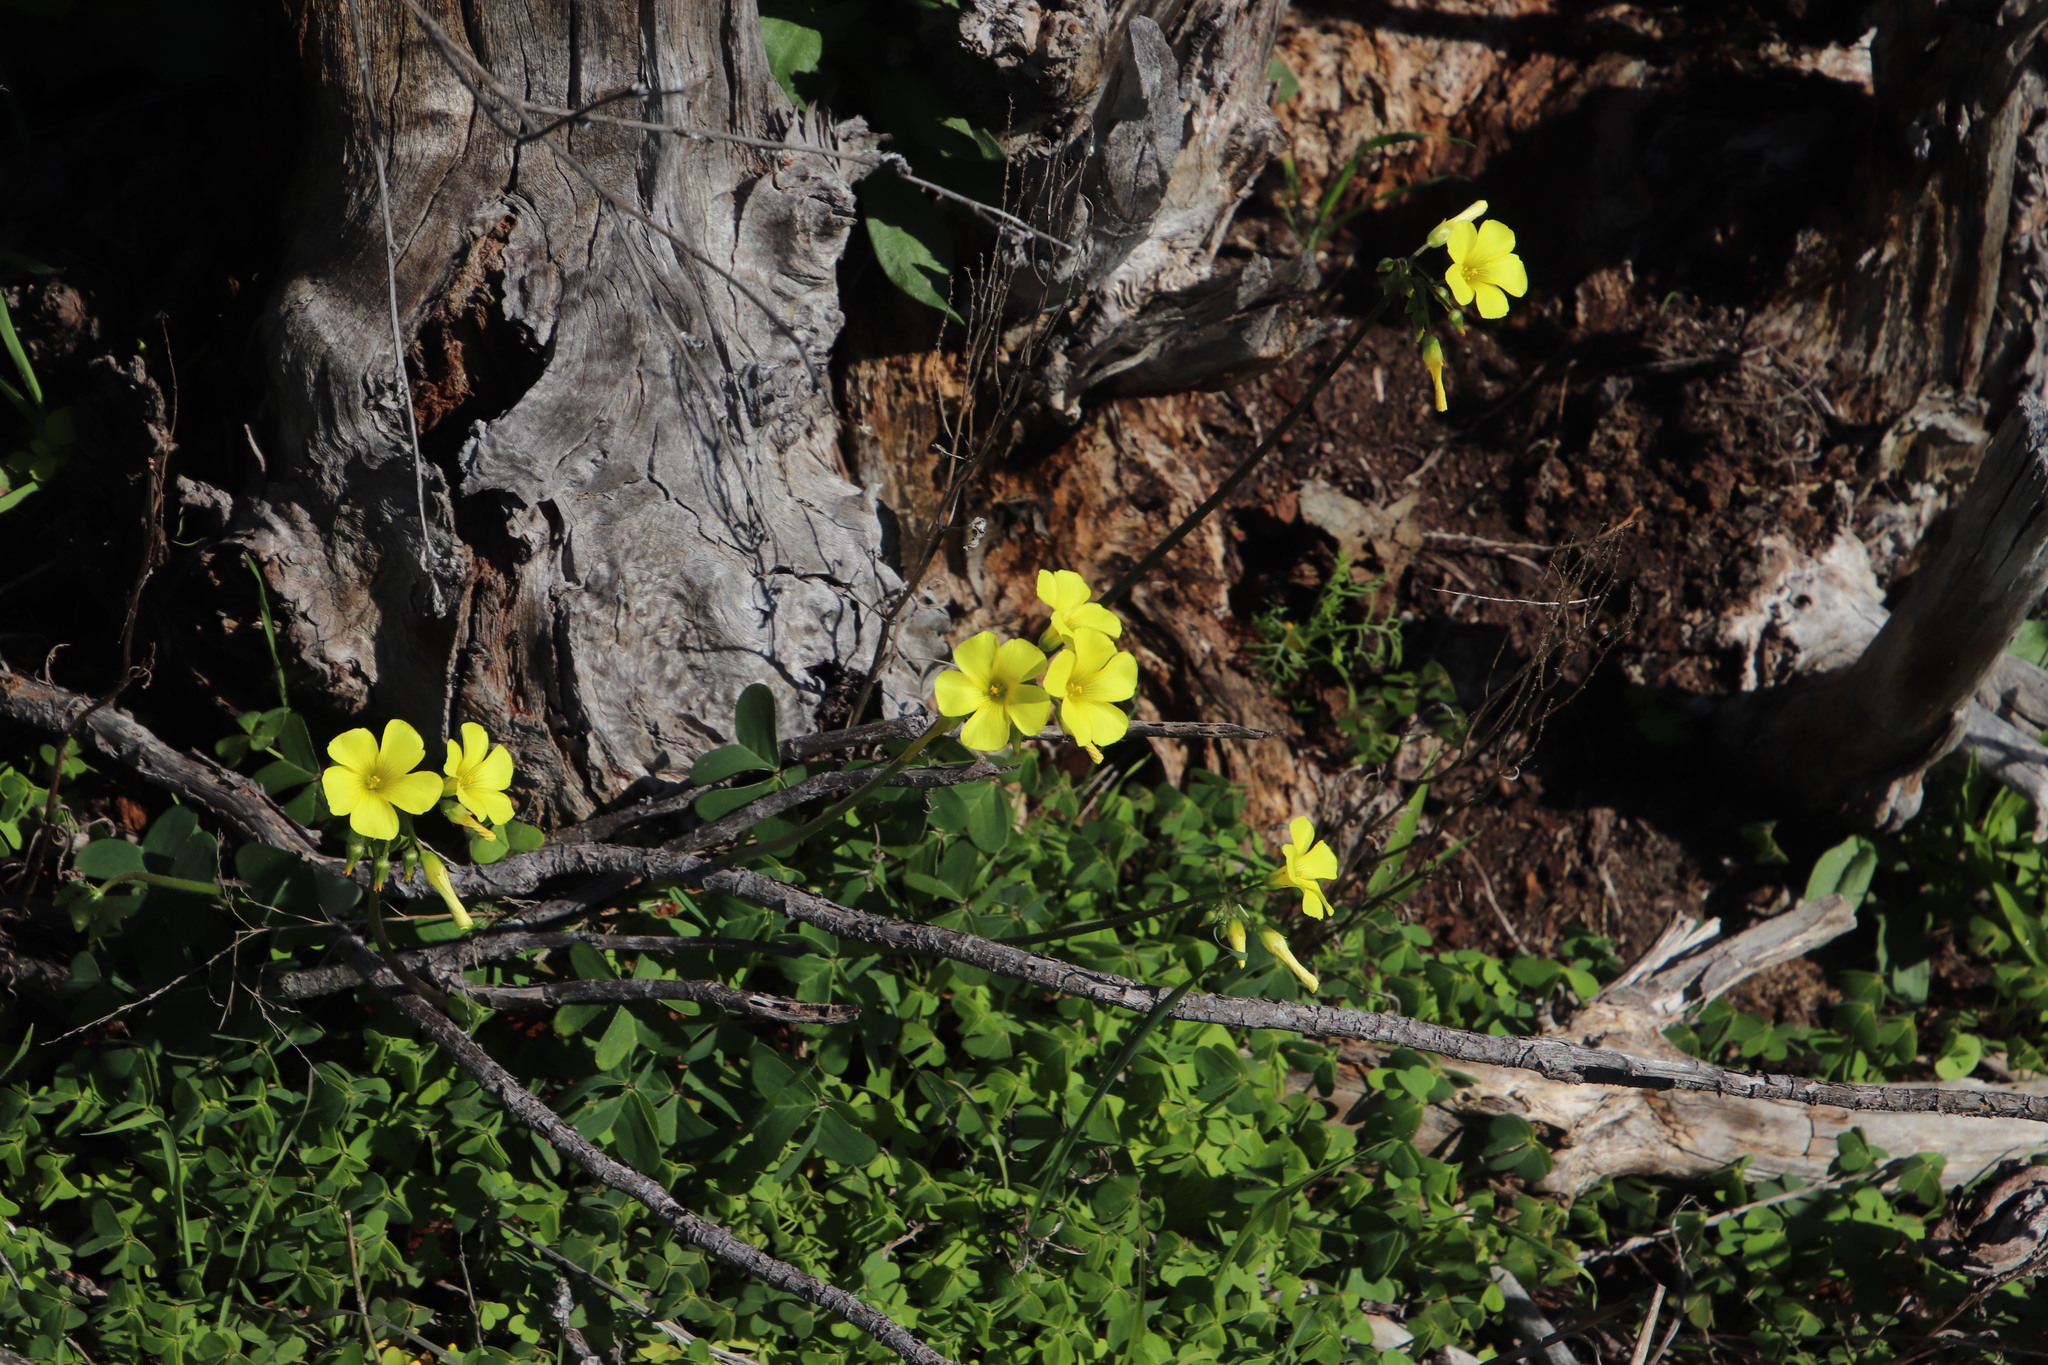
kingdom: Plantae
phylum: Tracheophyta
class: Magnoliopsida
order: Oxalidales
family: Oxalidaceae
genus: Oxalis
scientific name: Oxalis pes-caprae
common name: Bermuda-buttercup
